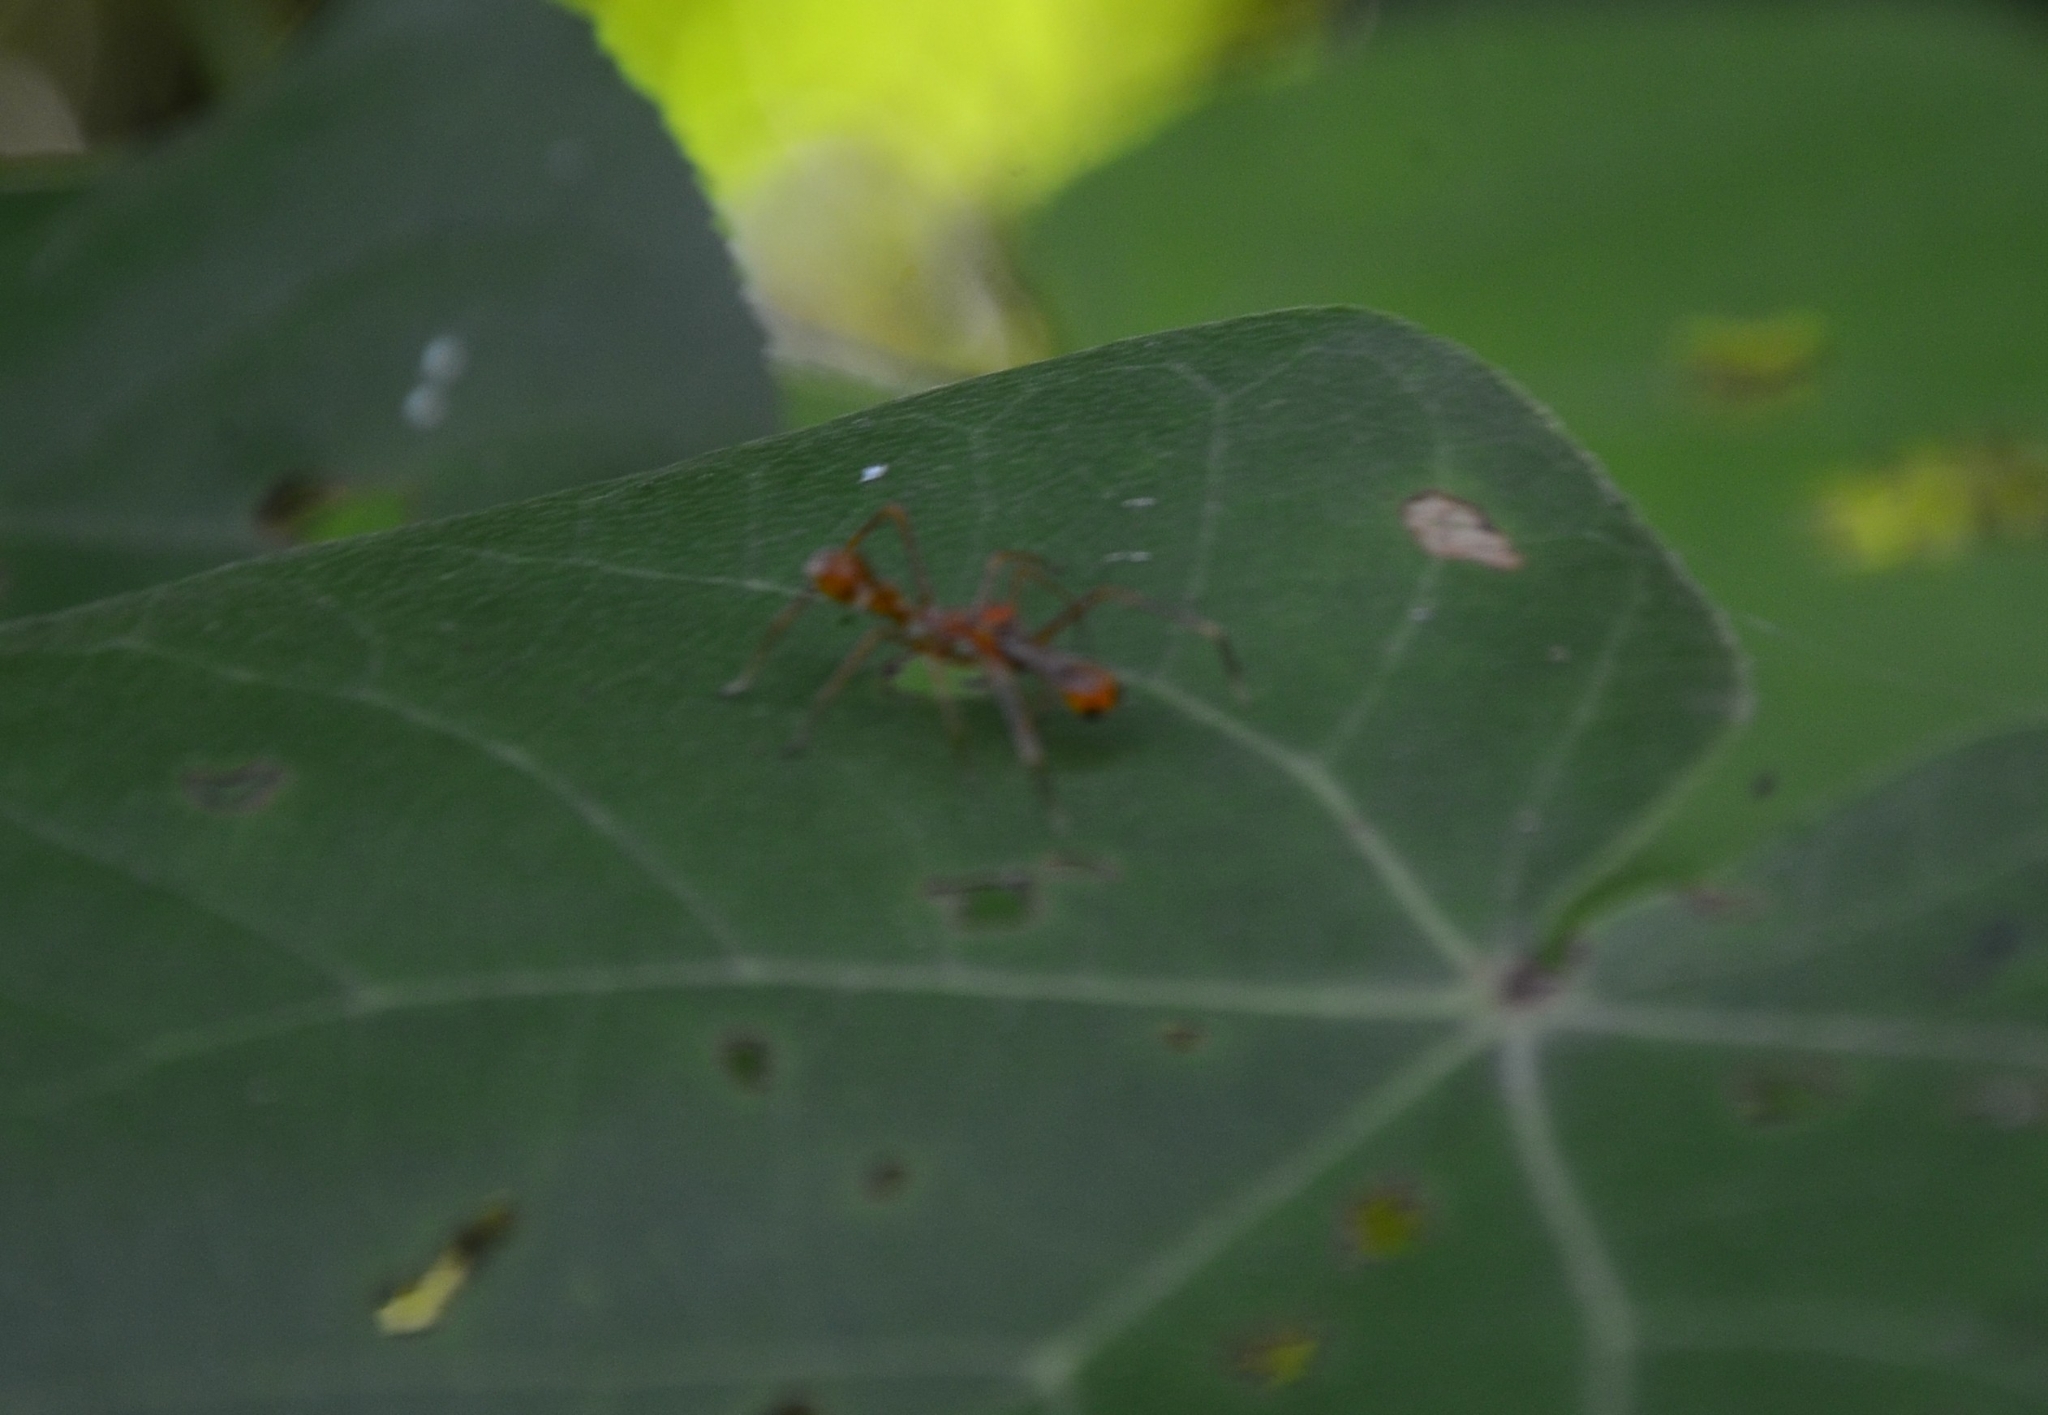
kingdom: Animalia
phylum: Arthropoda
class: Arachnida
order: Araneae
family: Salticidae
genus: Myrmaplata
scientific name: Myrmaplata plataleoides
